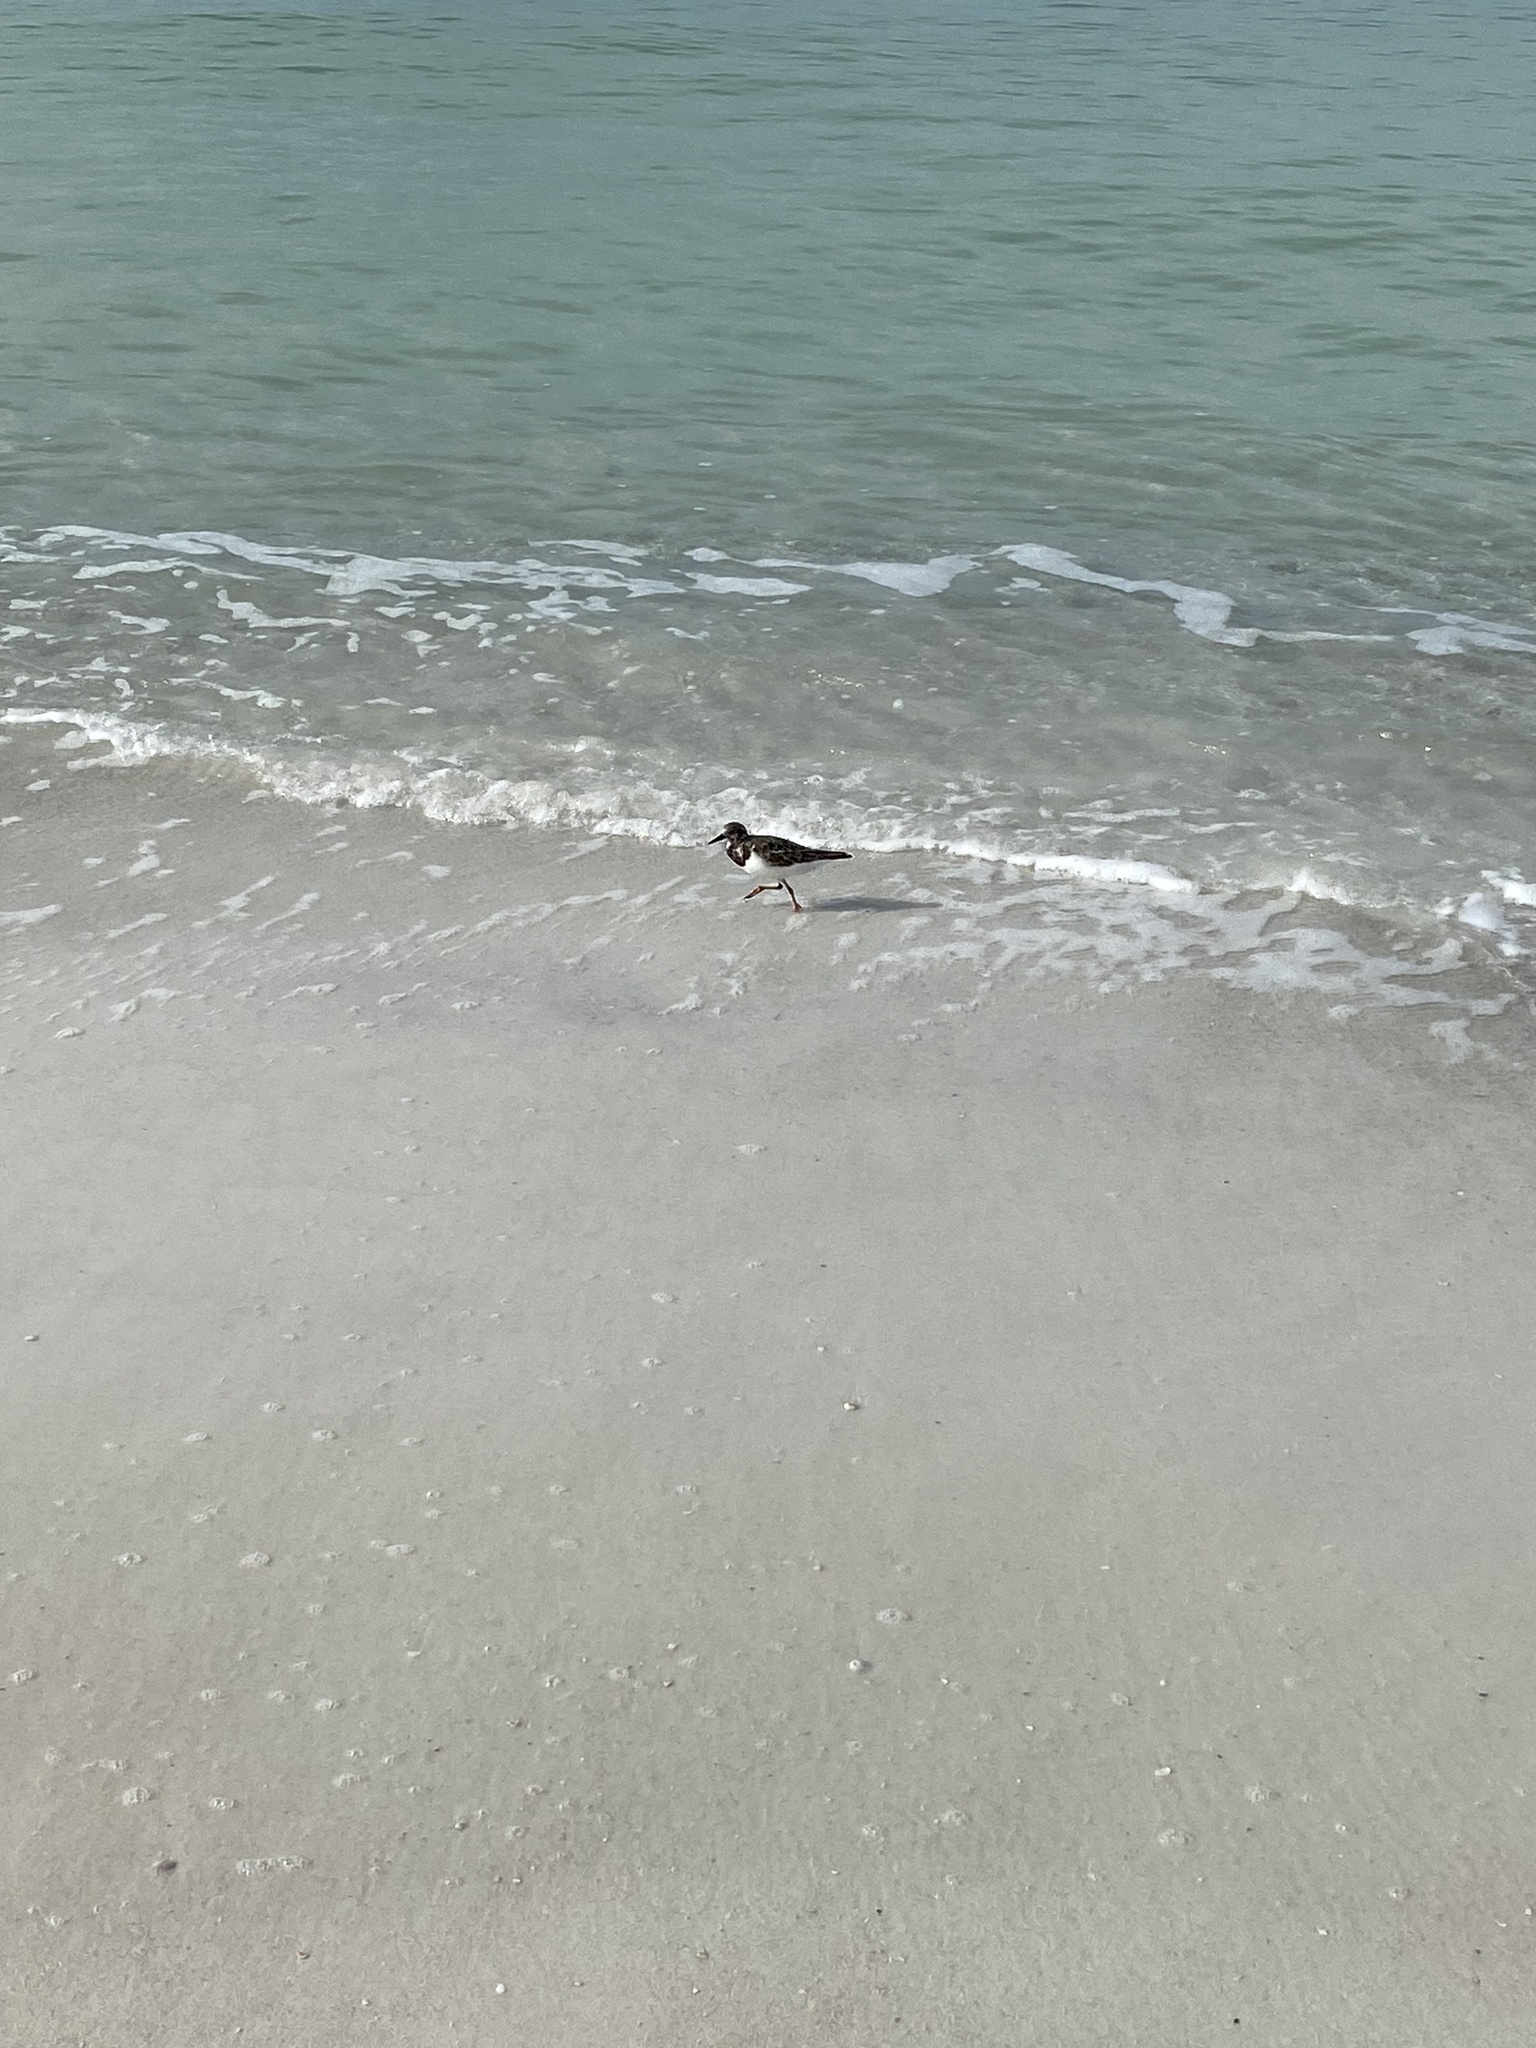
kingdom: Animalia
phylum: Chordata
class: Aves
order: Charadriiformes
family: Scolopacidae
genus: Arenaria
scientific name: Arenaria interpres
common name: Ruddy turnstone
